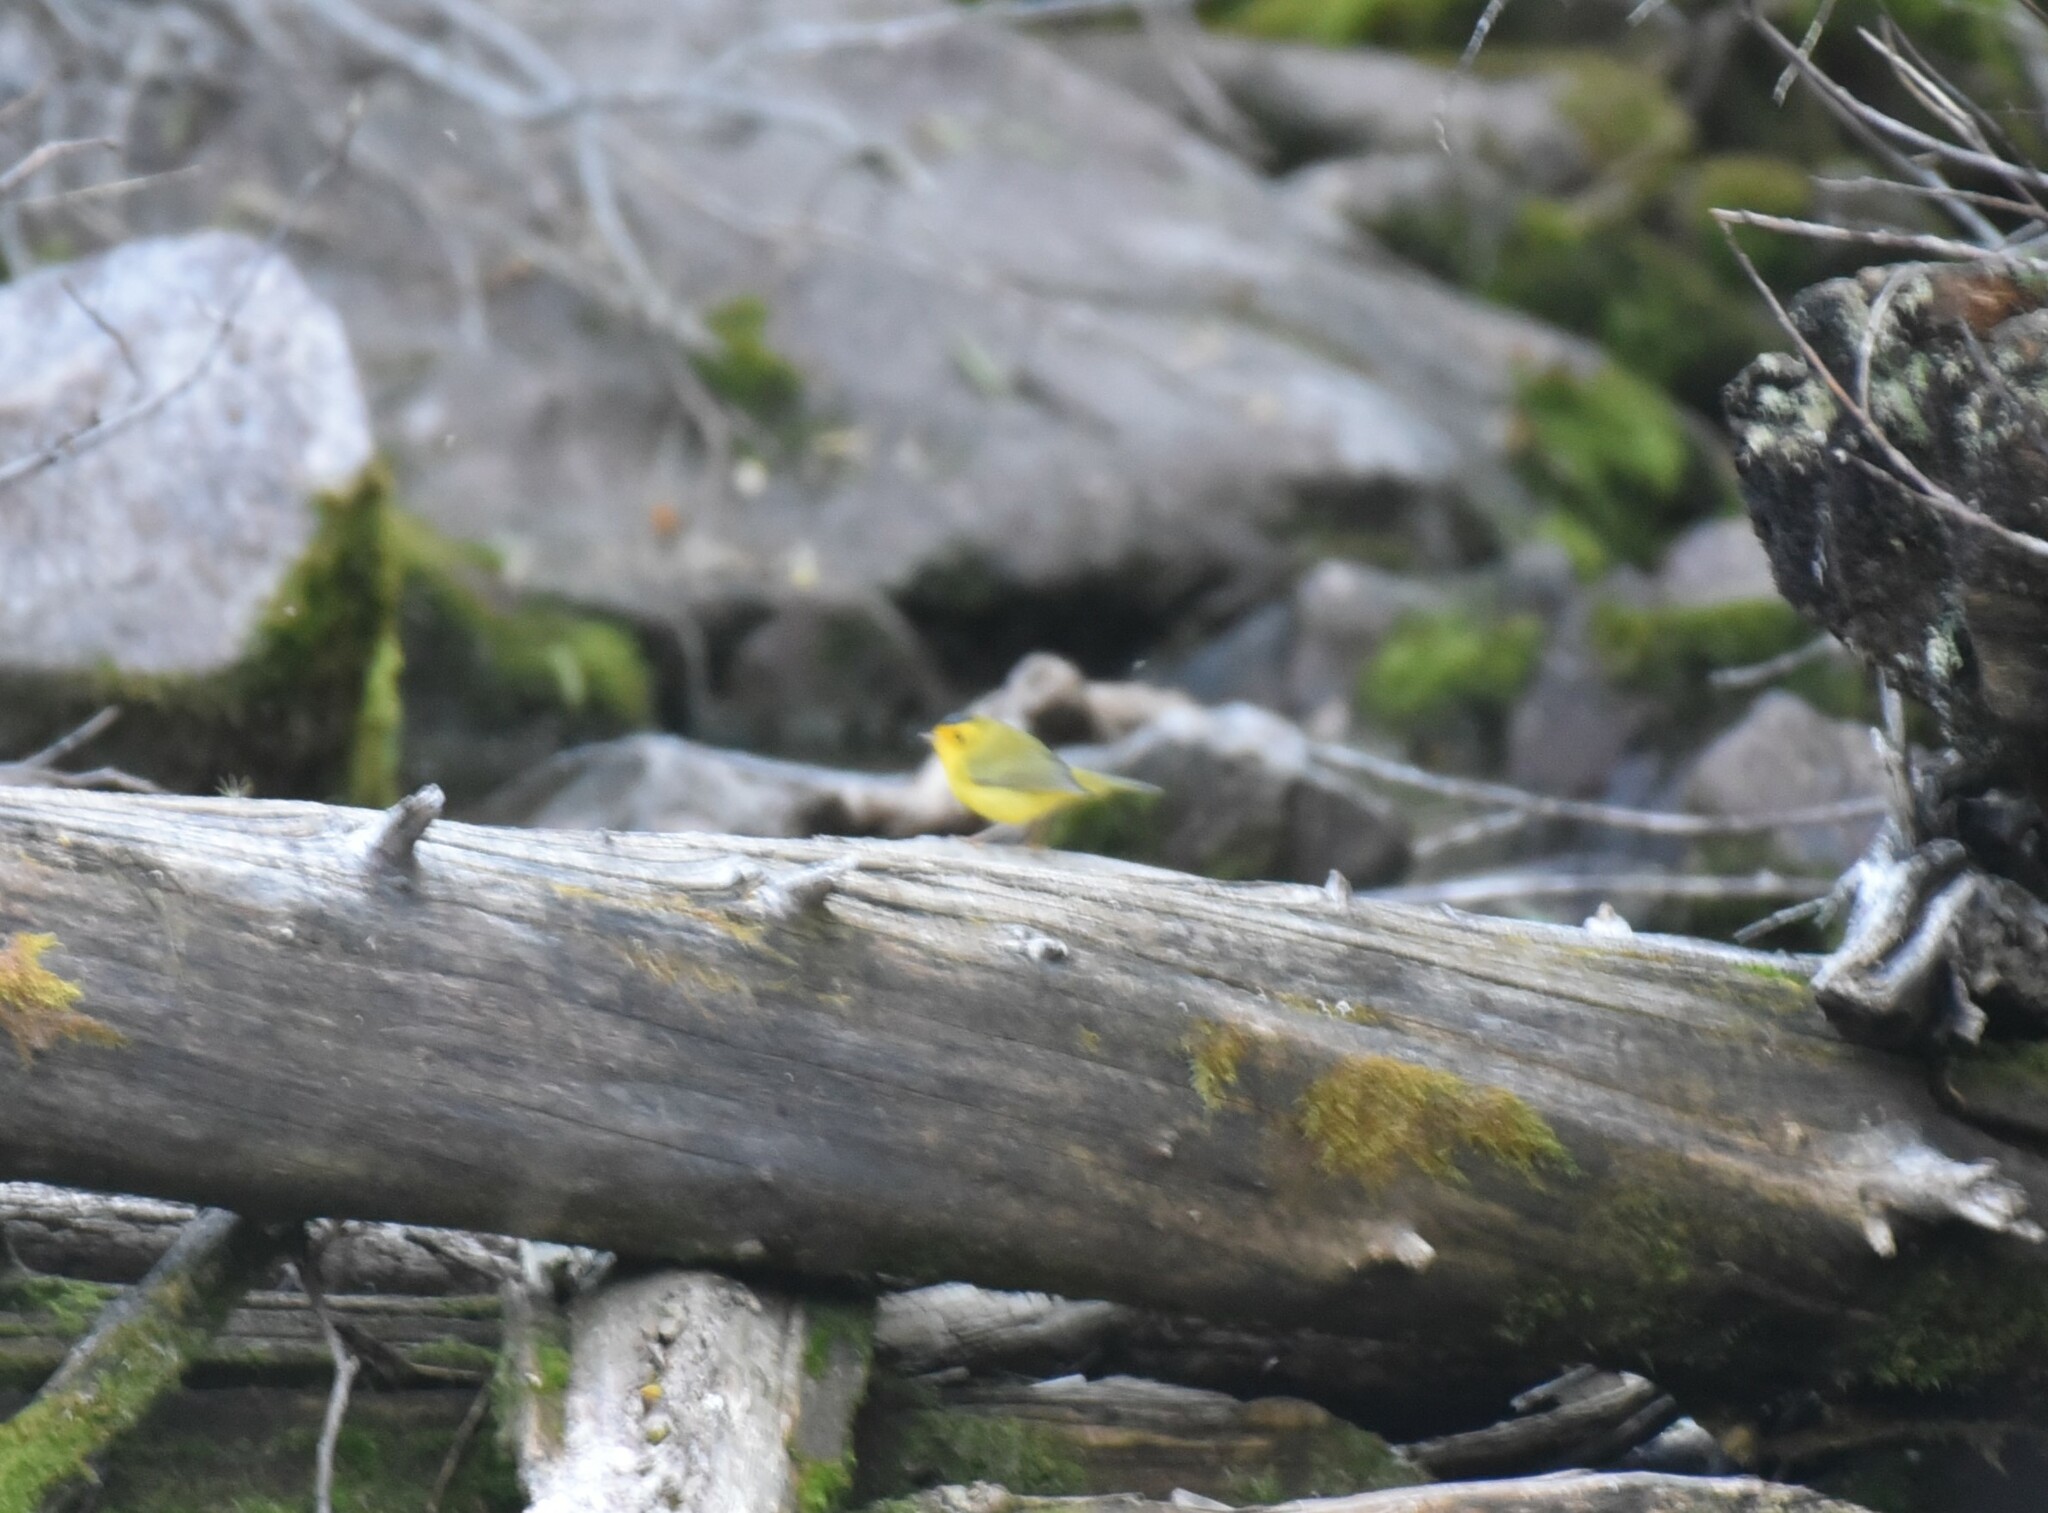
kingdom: Animalia
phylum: Chordata
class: Aves
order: Passeriformes
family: Parulidae
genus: Cardellina
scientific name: Cardellina pusilla
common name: Wilson's warbler
